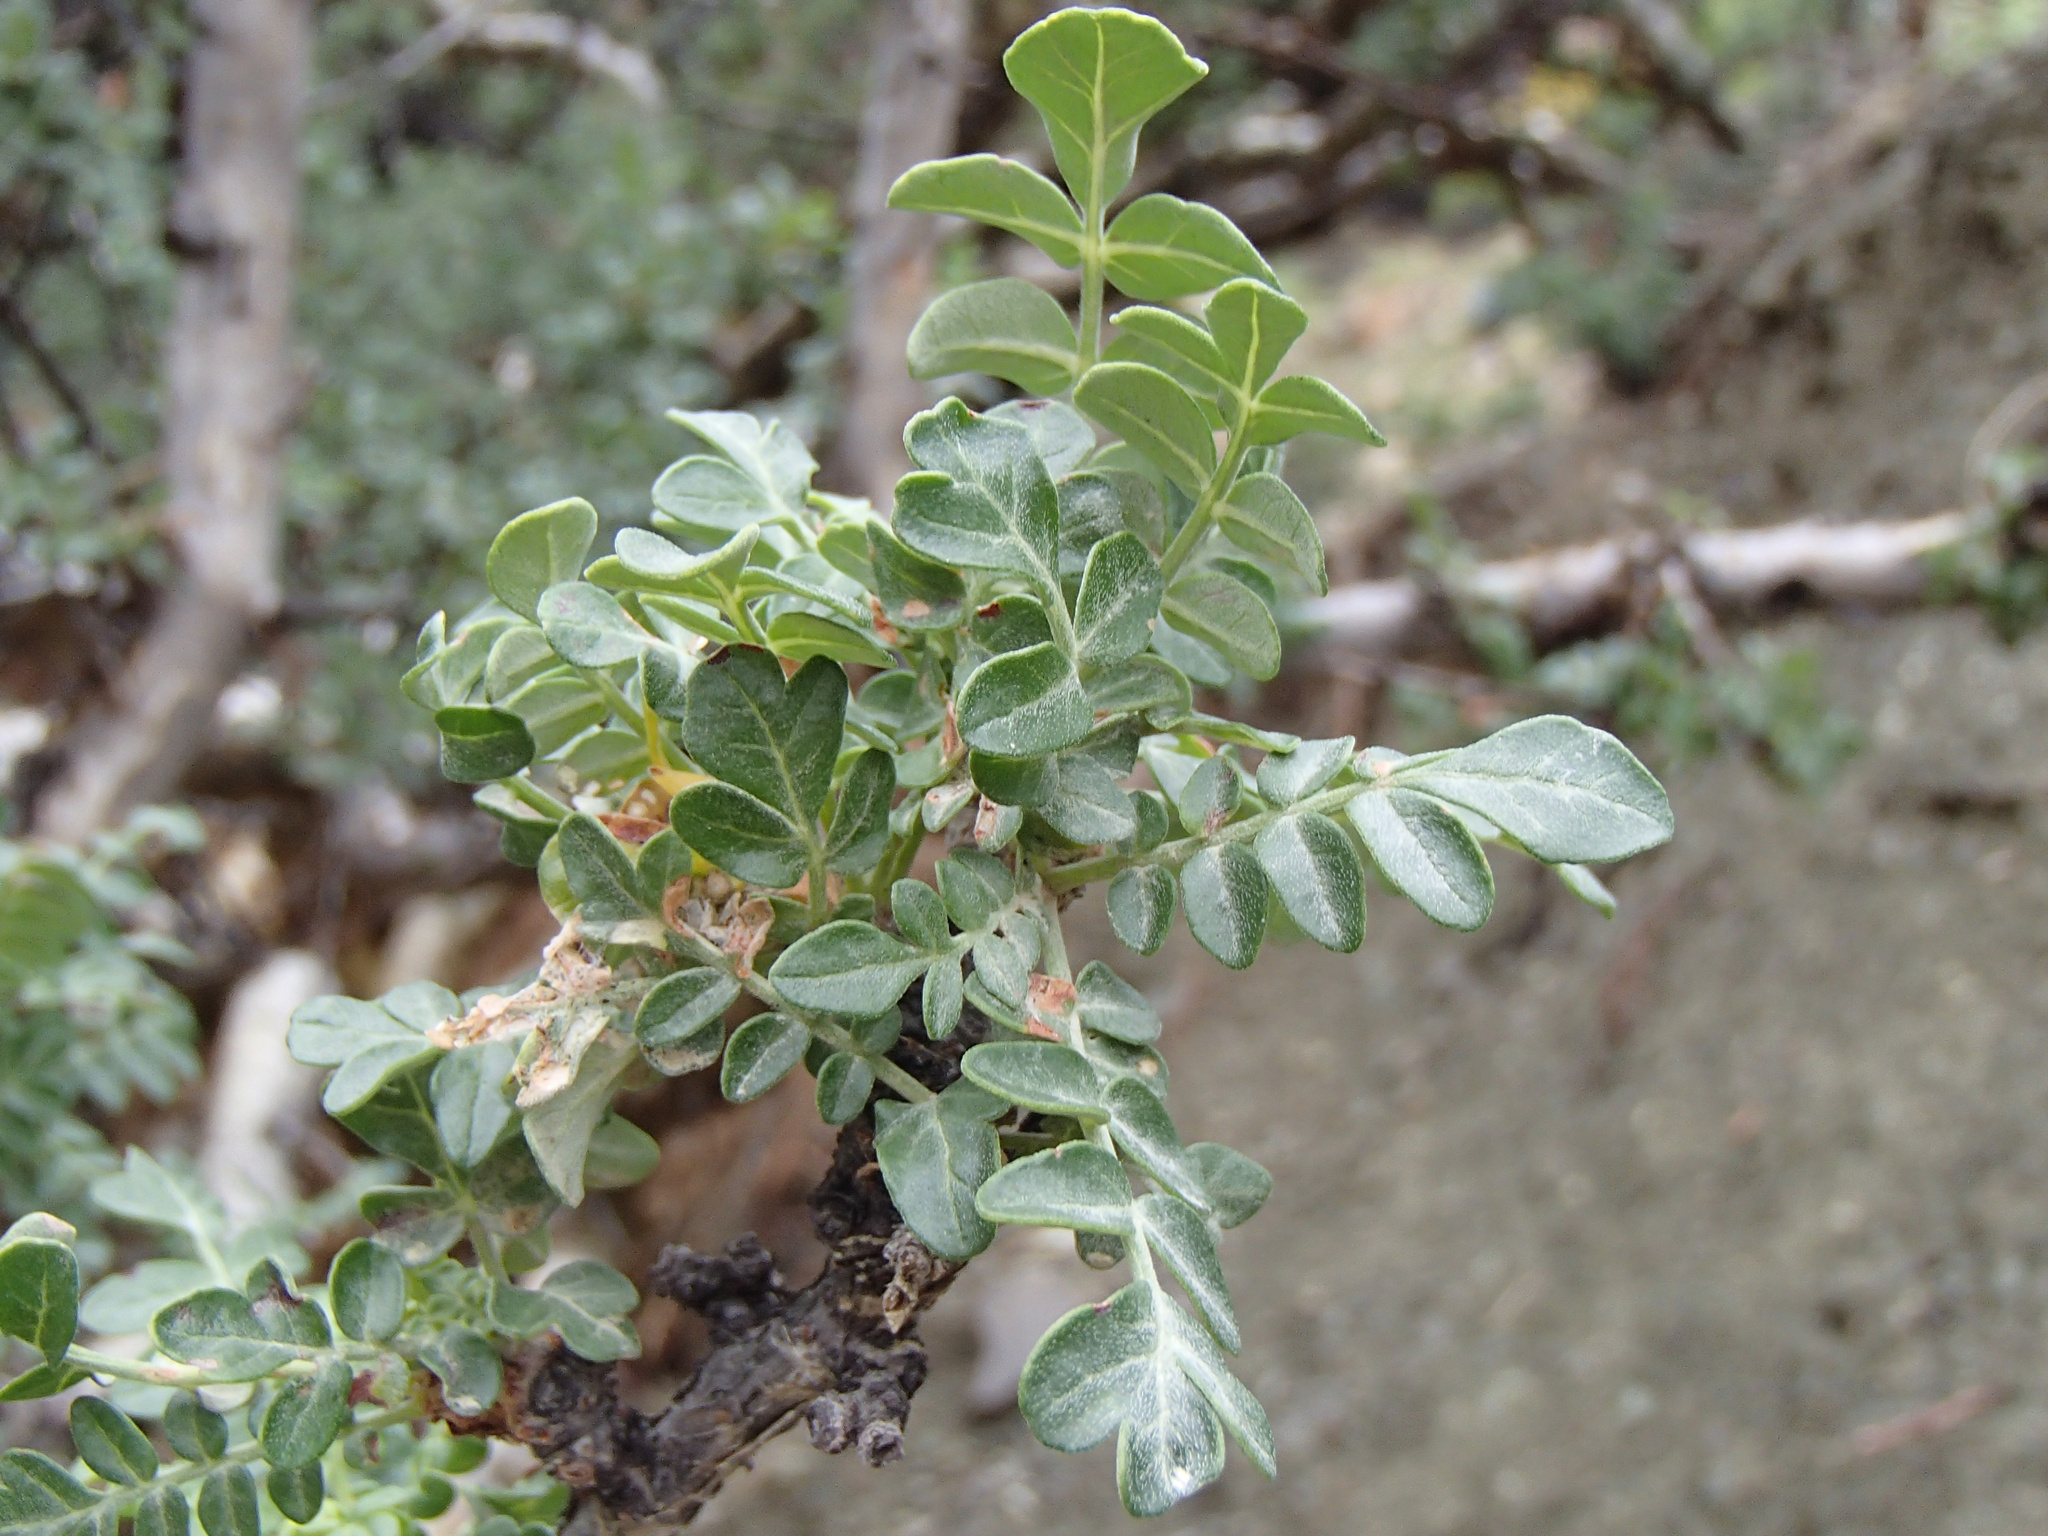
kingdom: Plantae
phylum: Tracheophyta
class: Magnoliopsida
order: Sapindales
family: Anacardiaceae
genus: Pachycormus
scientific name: Pachycormus discolor
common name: Succulent elephant trees
